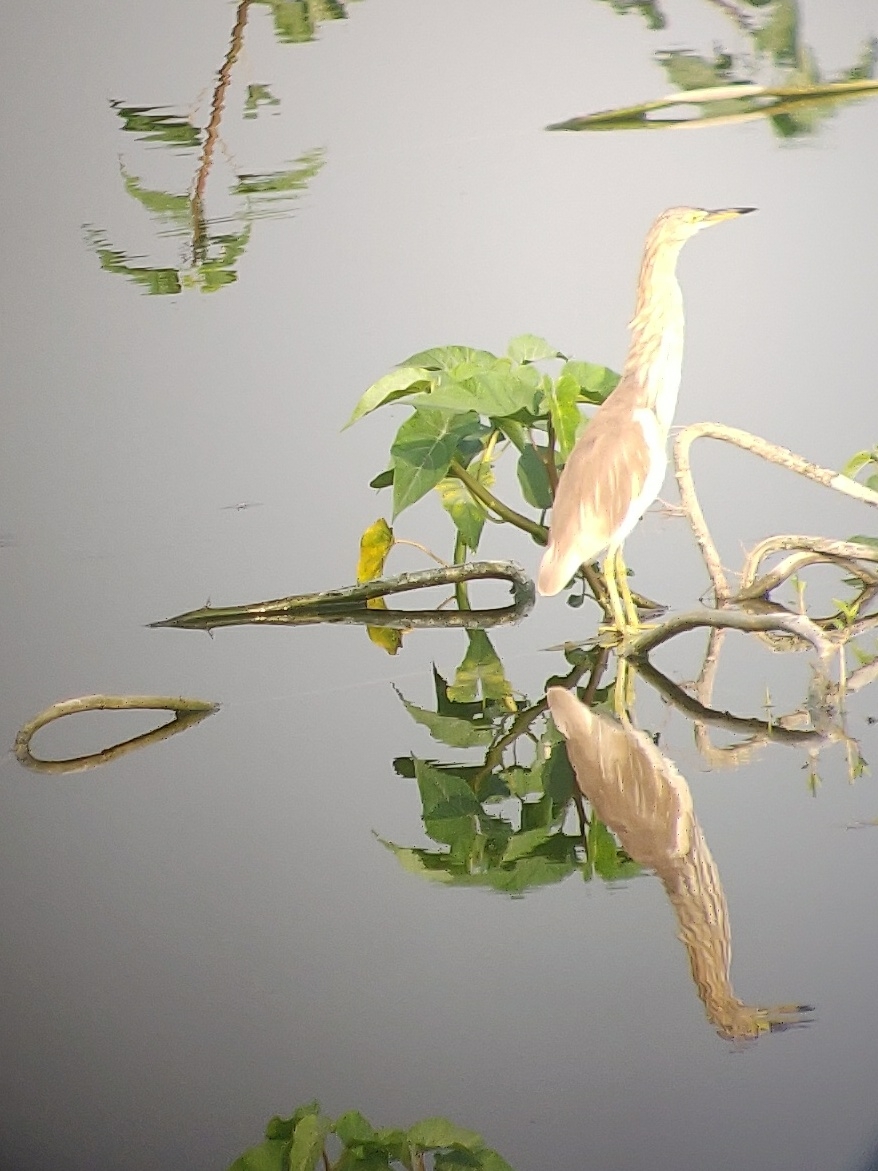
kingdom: Animalia
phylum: Chordata
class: Aves
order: Pelecaniformes
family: Ardeidae
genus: Ardeola
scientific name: Ardeola grayii
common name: Indian pond heron
